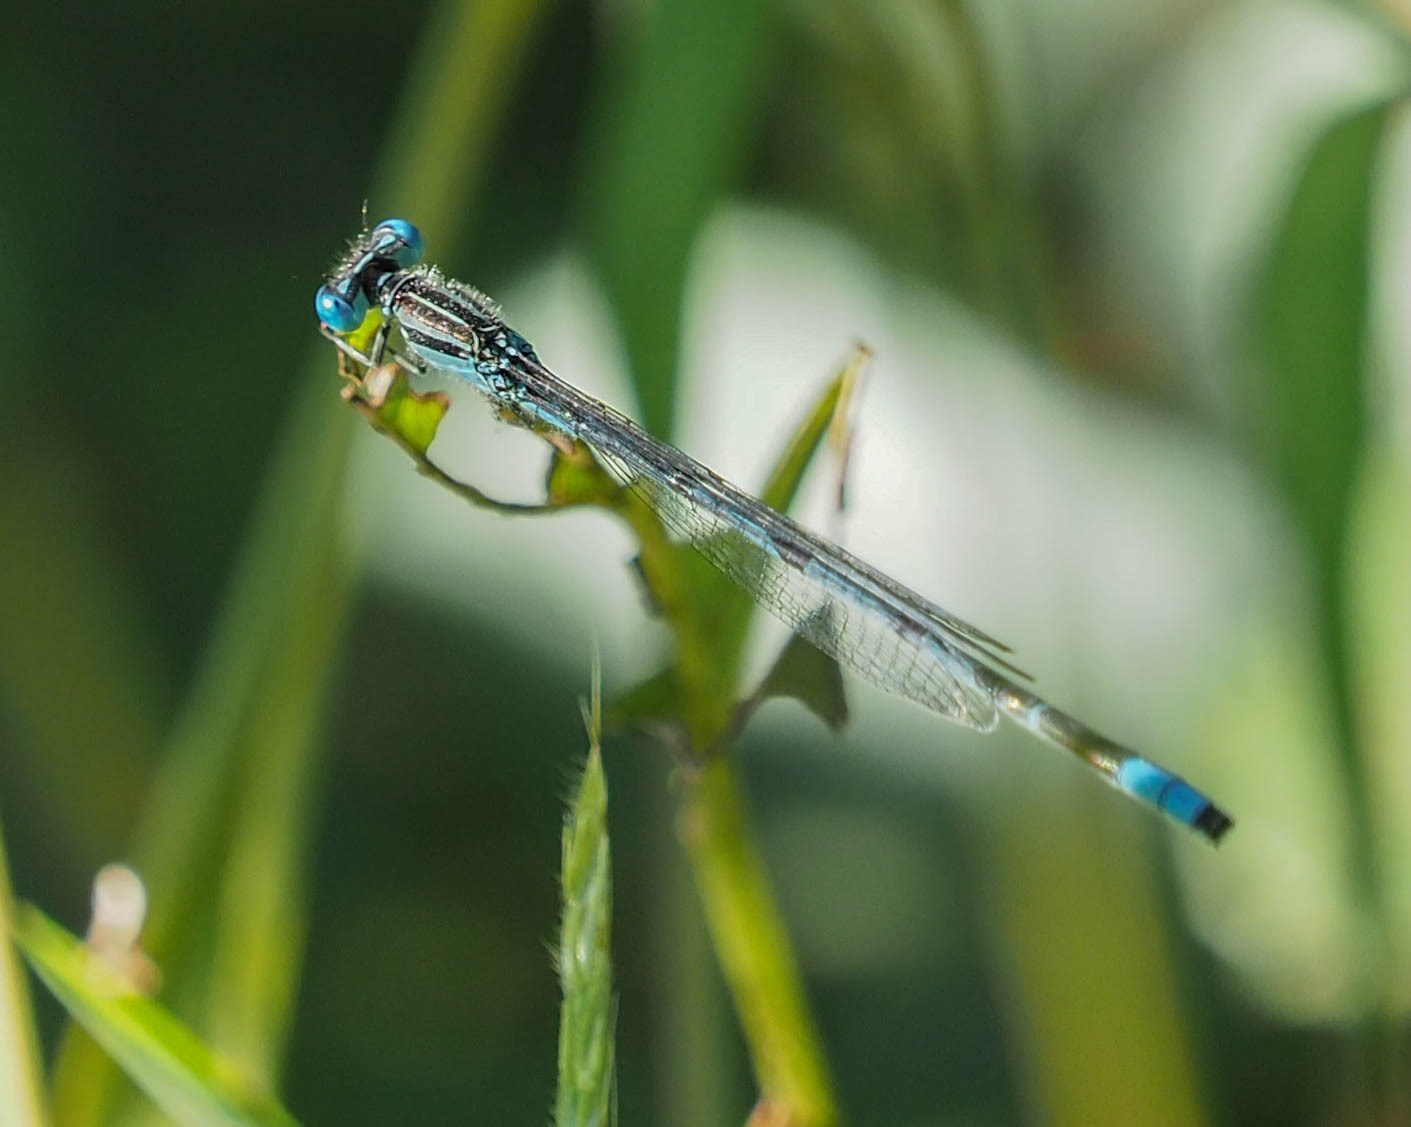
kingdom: Animalia
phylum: Arthropoda
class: Insecta
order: Odonata
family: Coenagrionidae
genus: Enallagma
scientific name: Enallagma durum
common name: Big bluet
